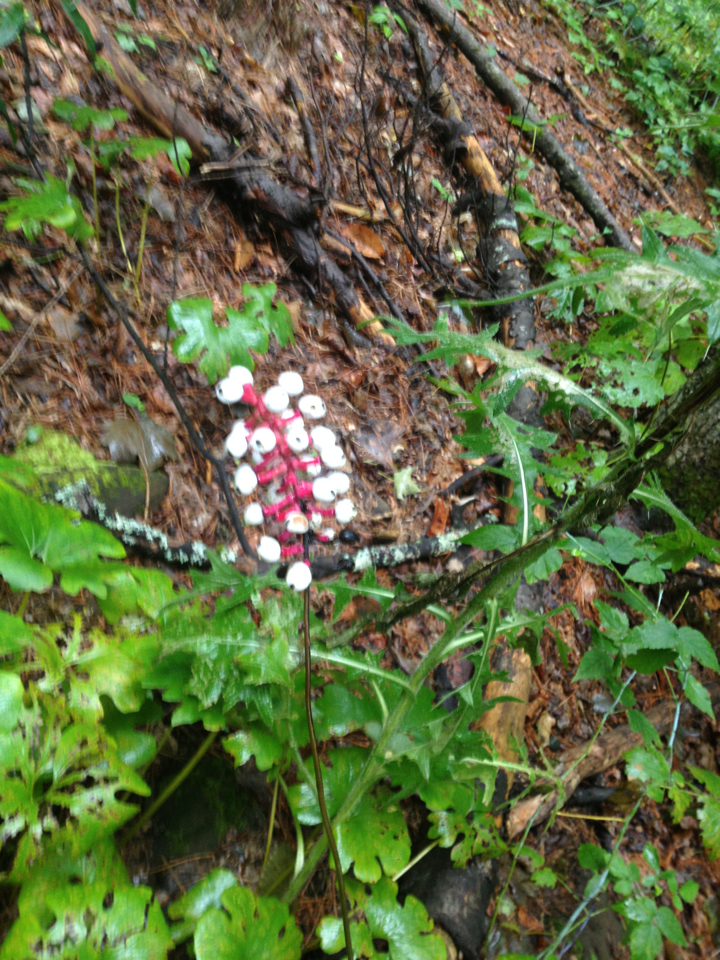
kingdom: Plantae
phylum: Tracheophyta
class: Magnoliopsida
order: Ranunculales
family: Ranunculaceae
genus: Actaea
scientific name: Actaea pachypoda
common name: Doll's-eyes
